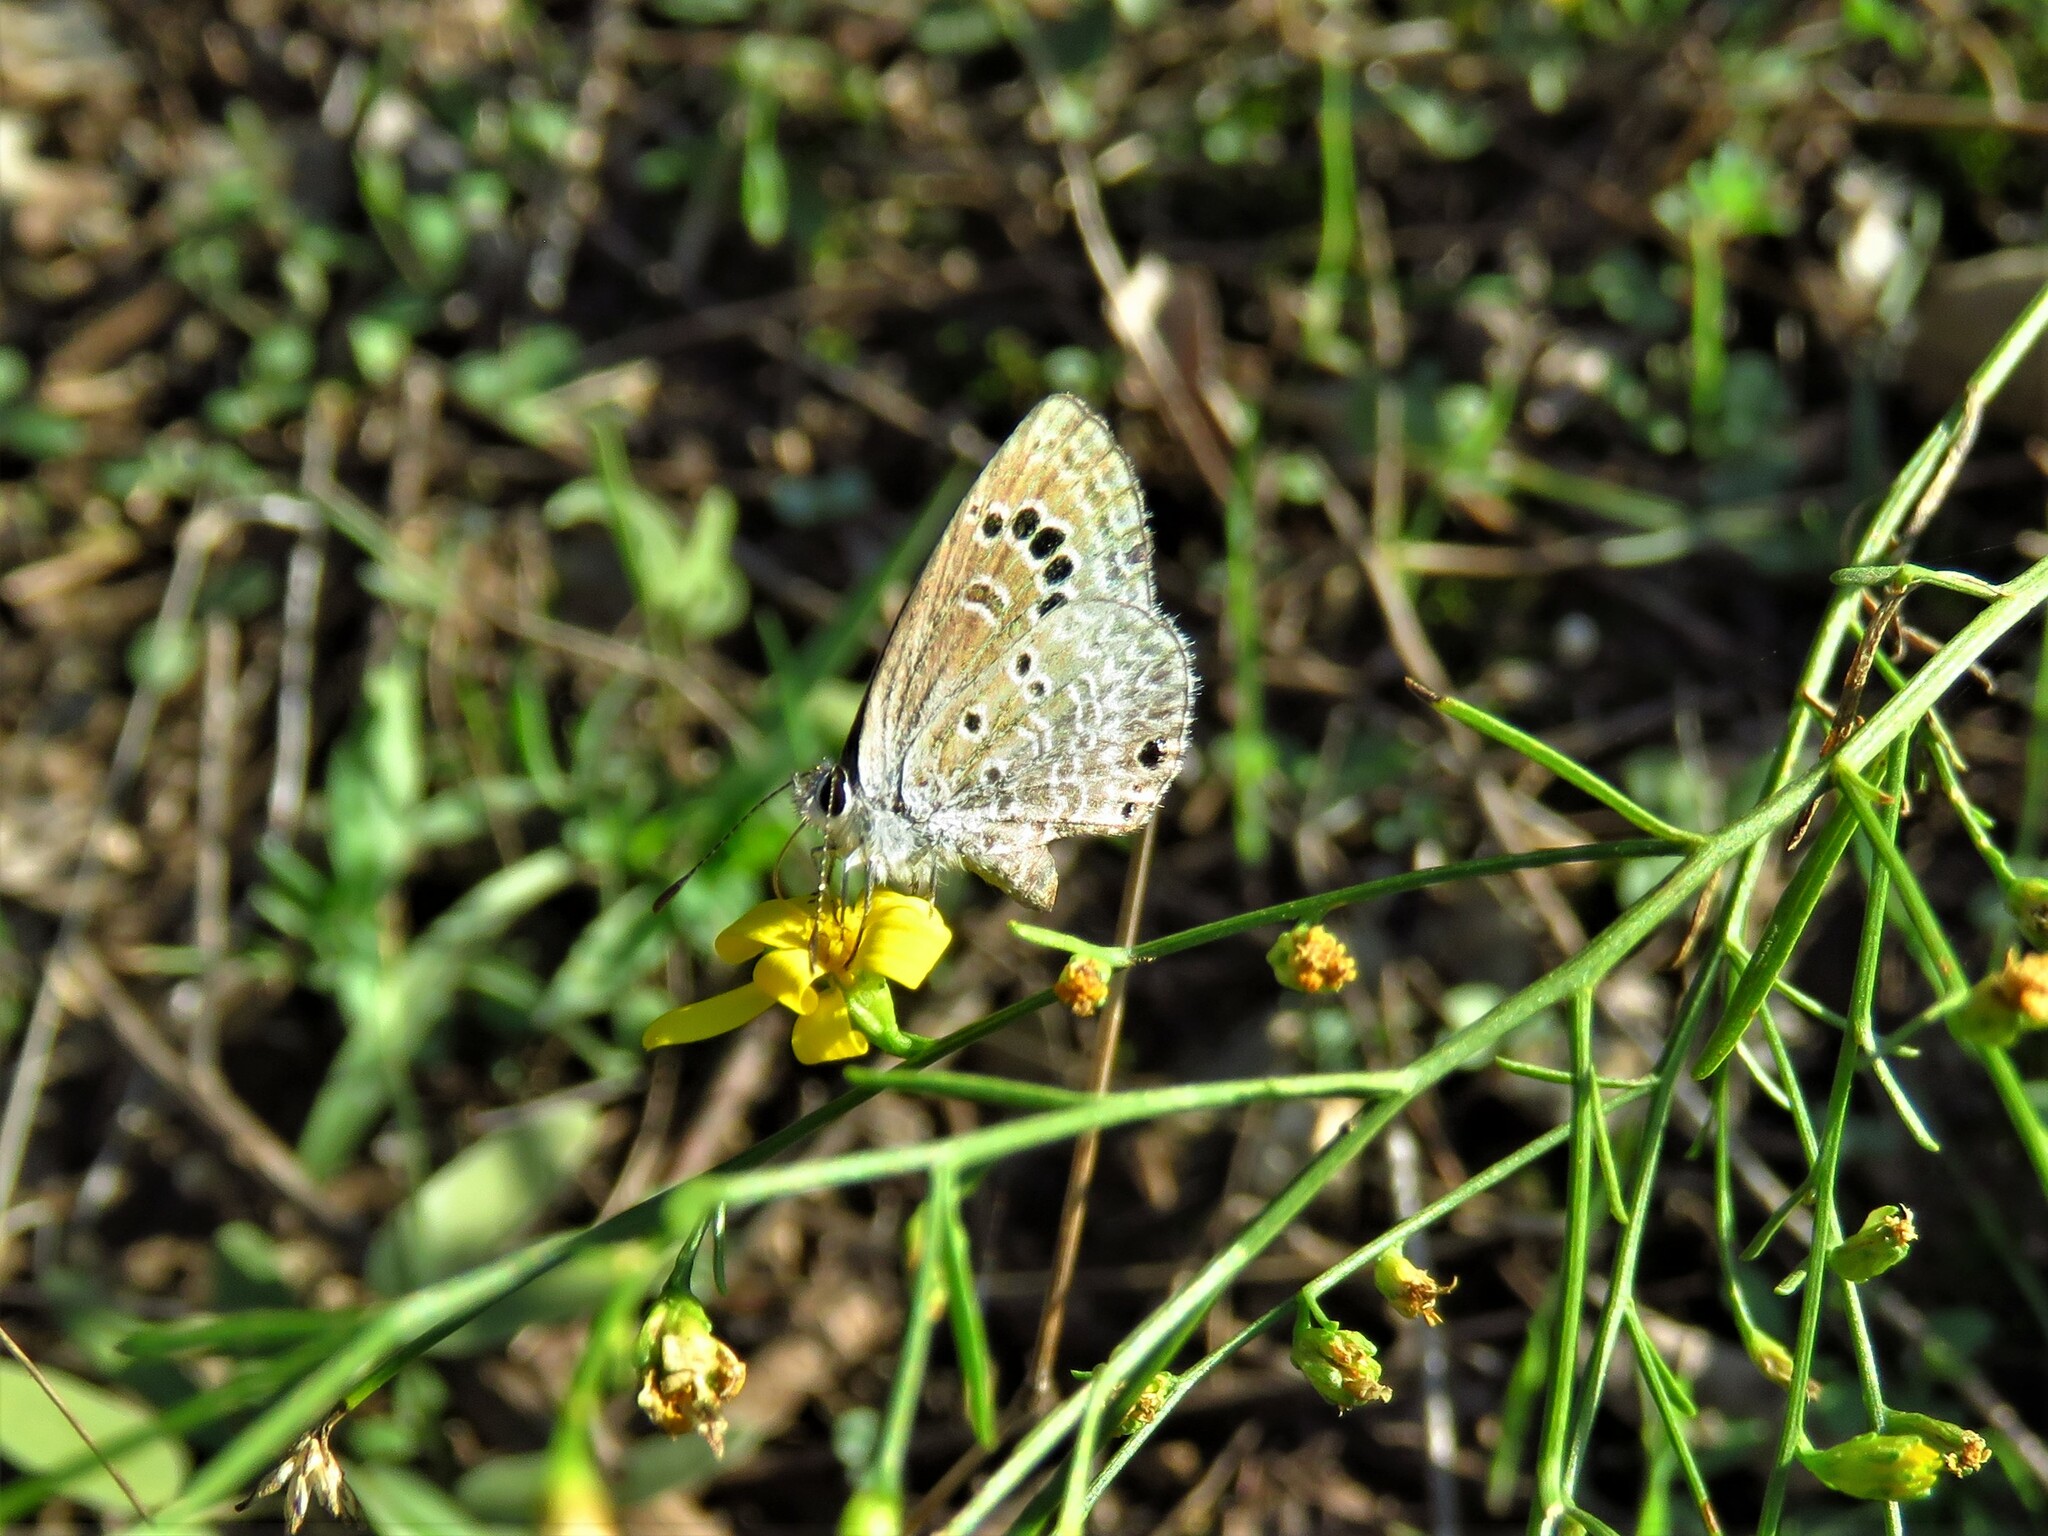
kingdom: Animalia
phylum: Arthropoda
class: Insecta
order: Lepidoptera
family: Lycaenidae
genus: Echinargus
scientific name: Echinargus isola
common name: Reakirt's blue
